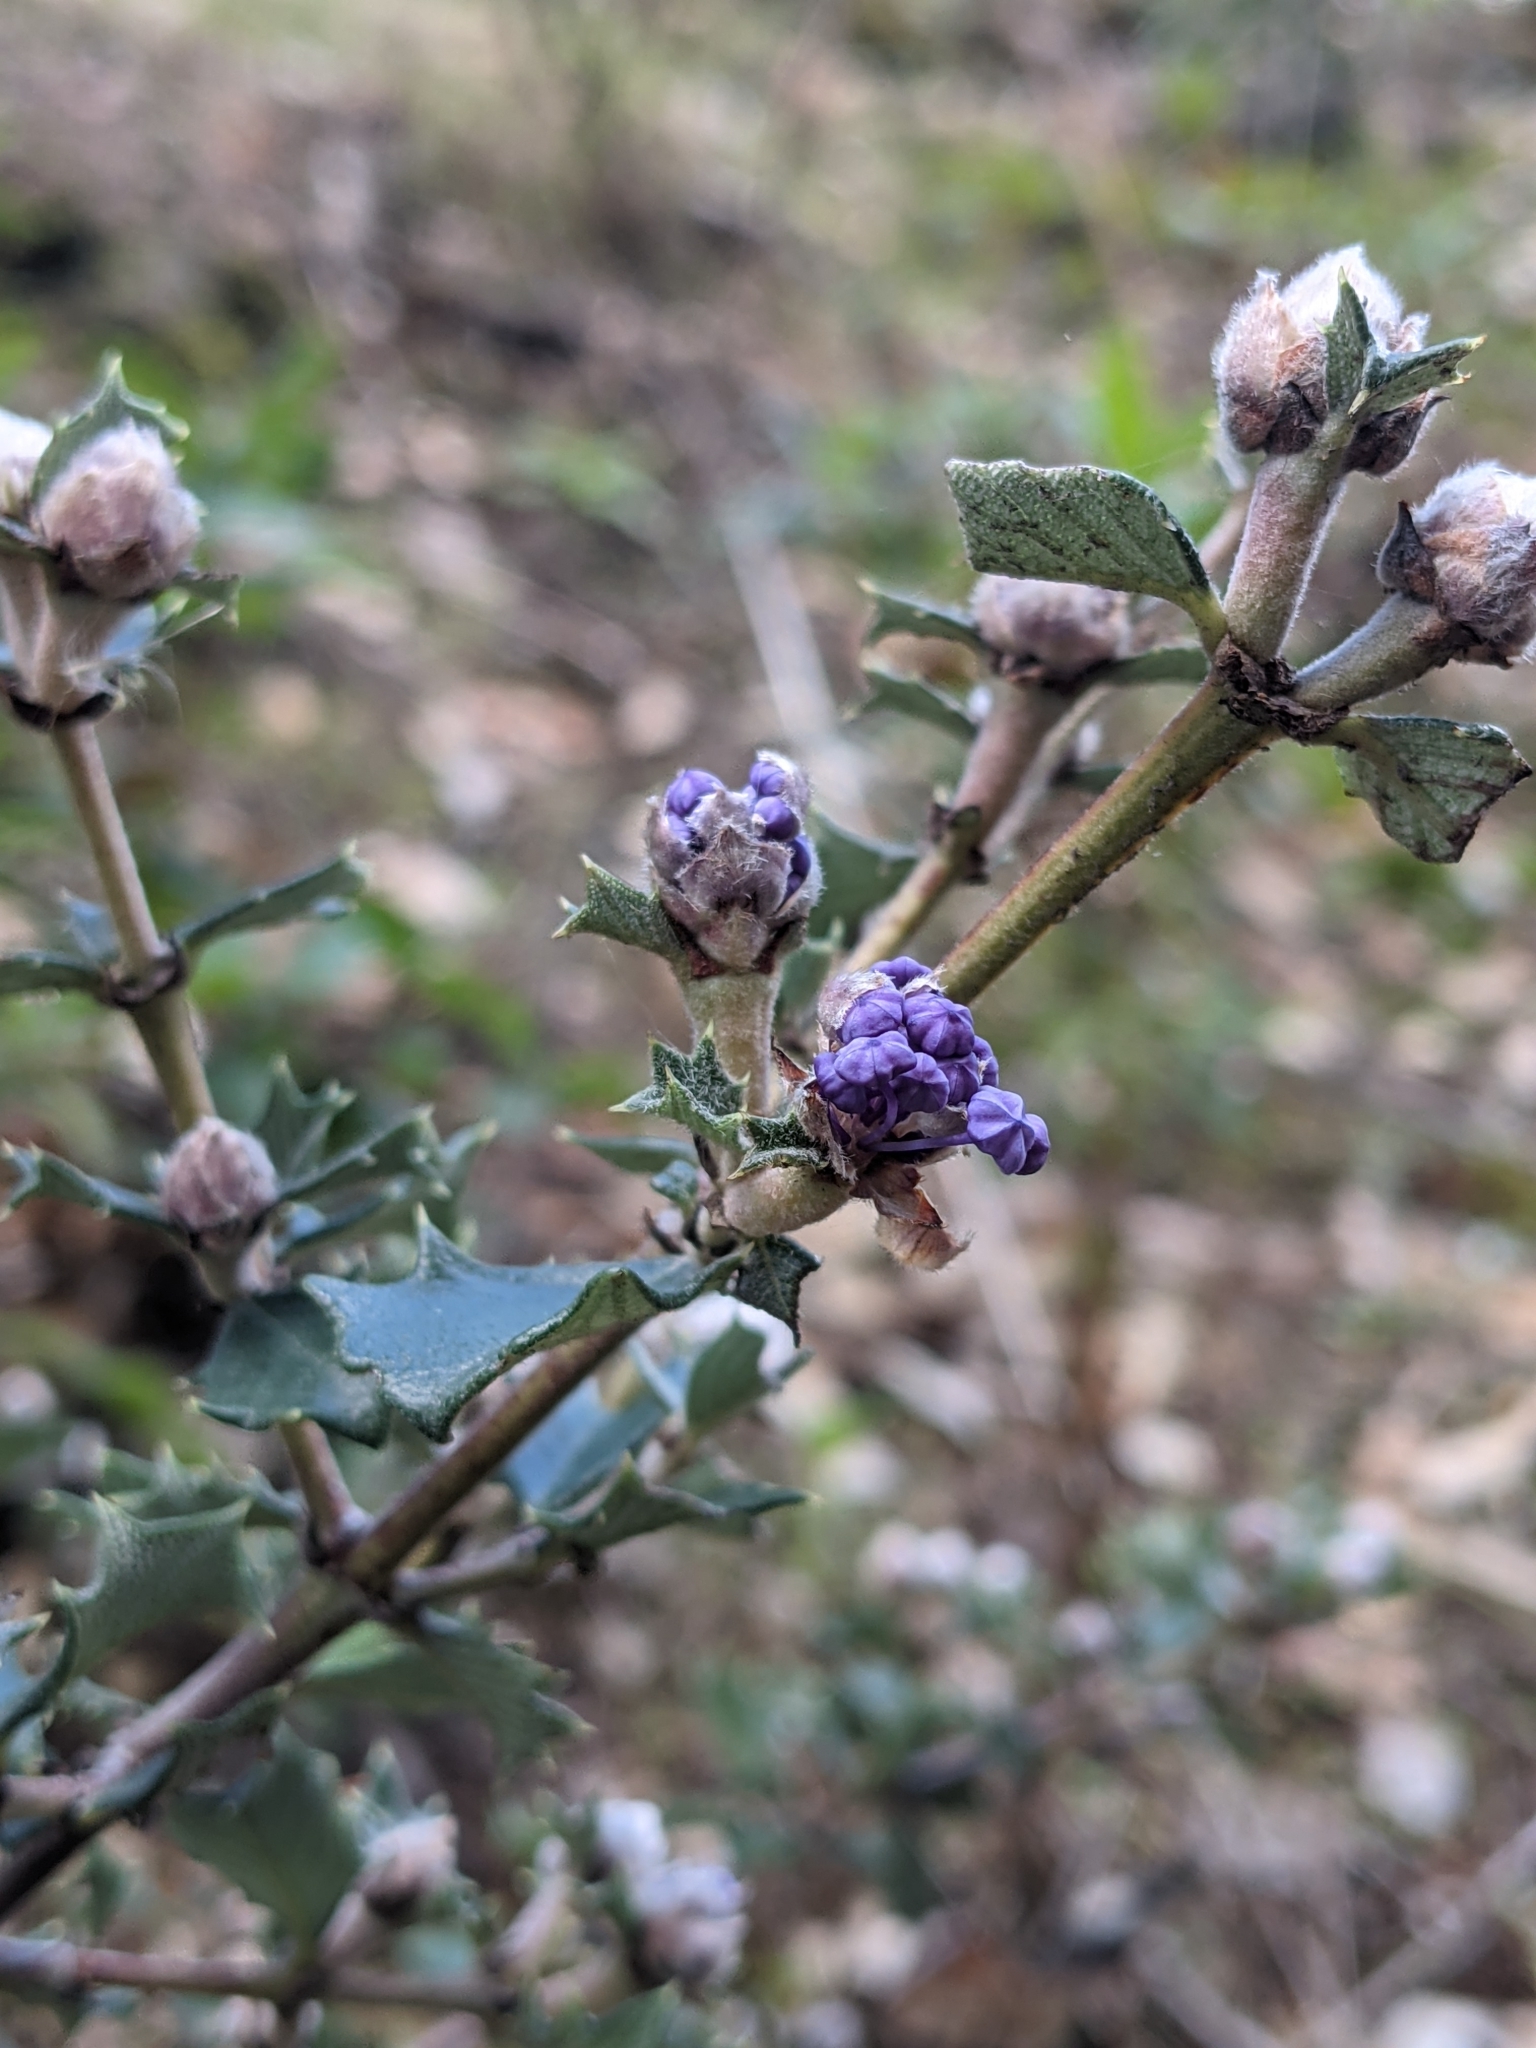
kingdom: Plantae
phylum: Tracheophyta
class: Magnoliopsida
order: Rosales
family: Rhamnaceae
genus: Ceanothus
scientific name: Ceanothus divergens
